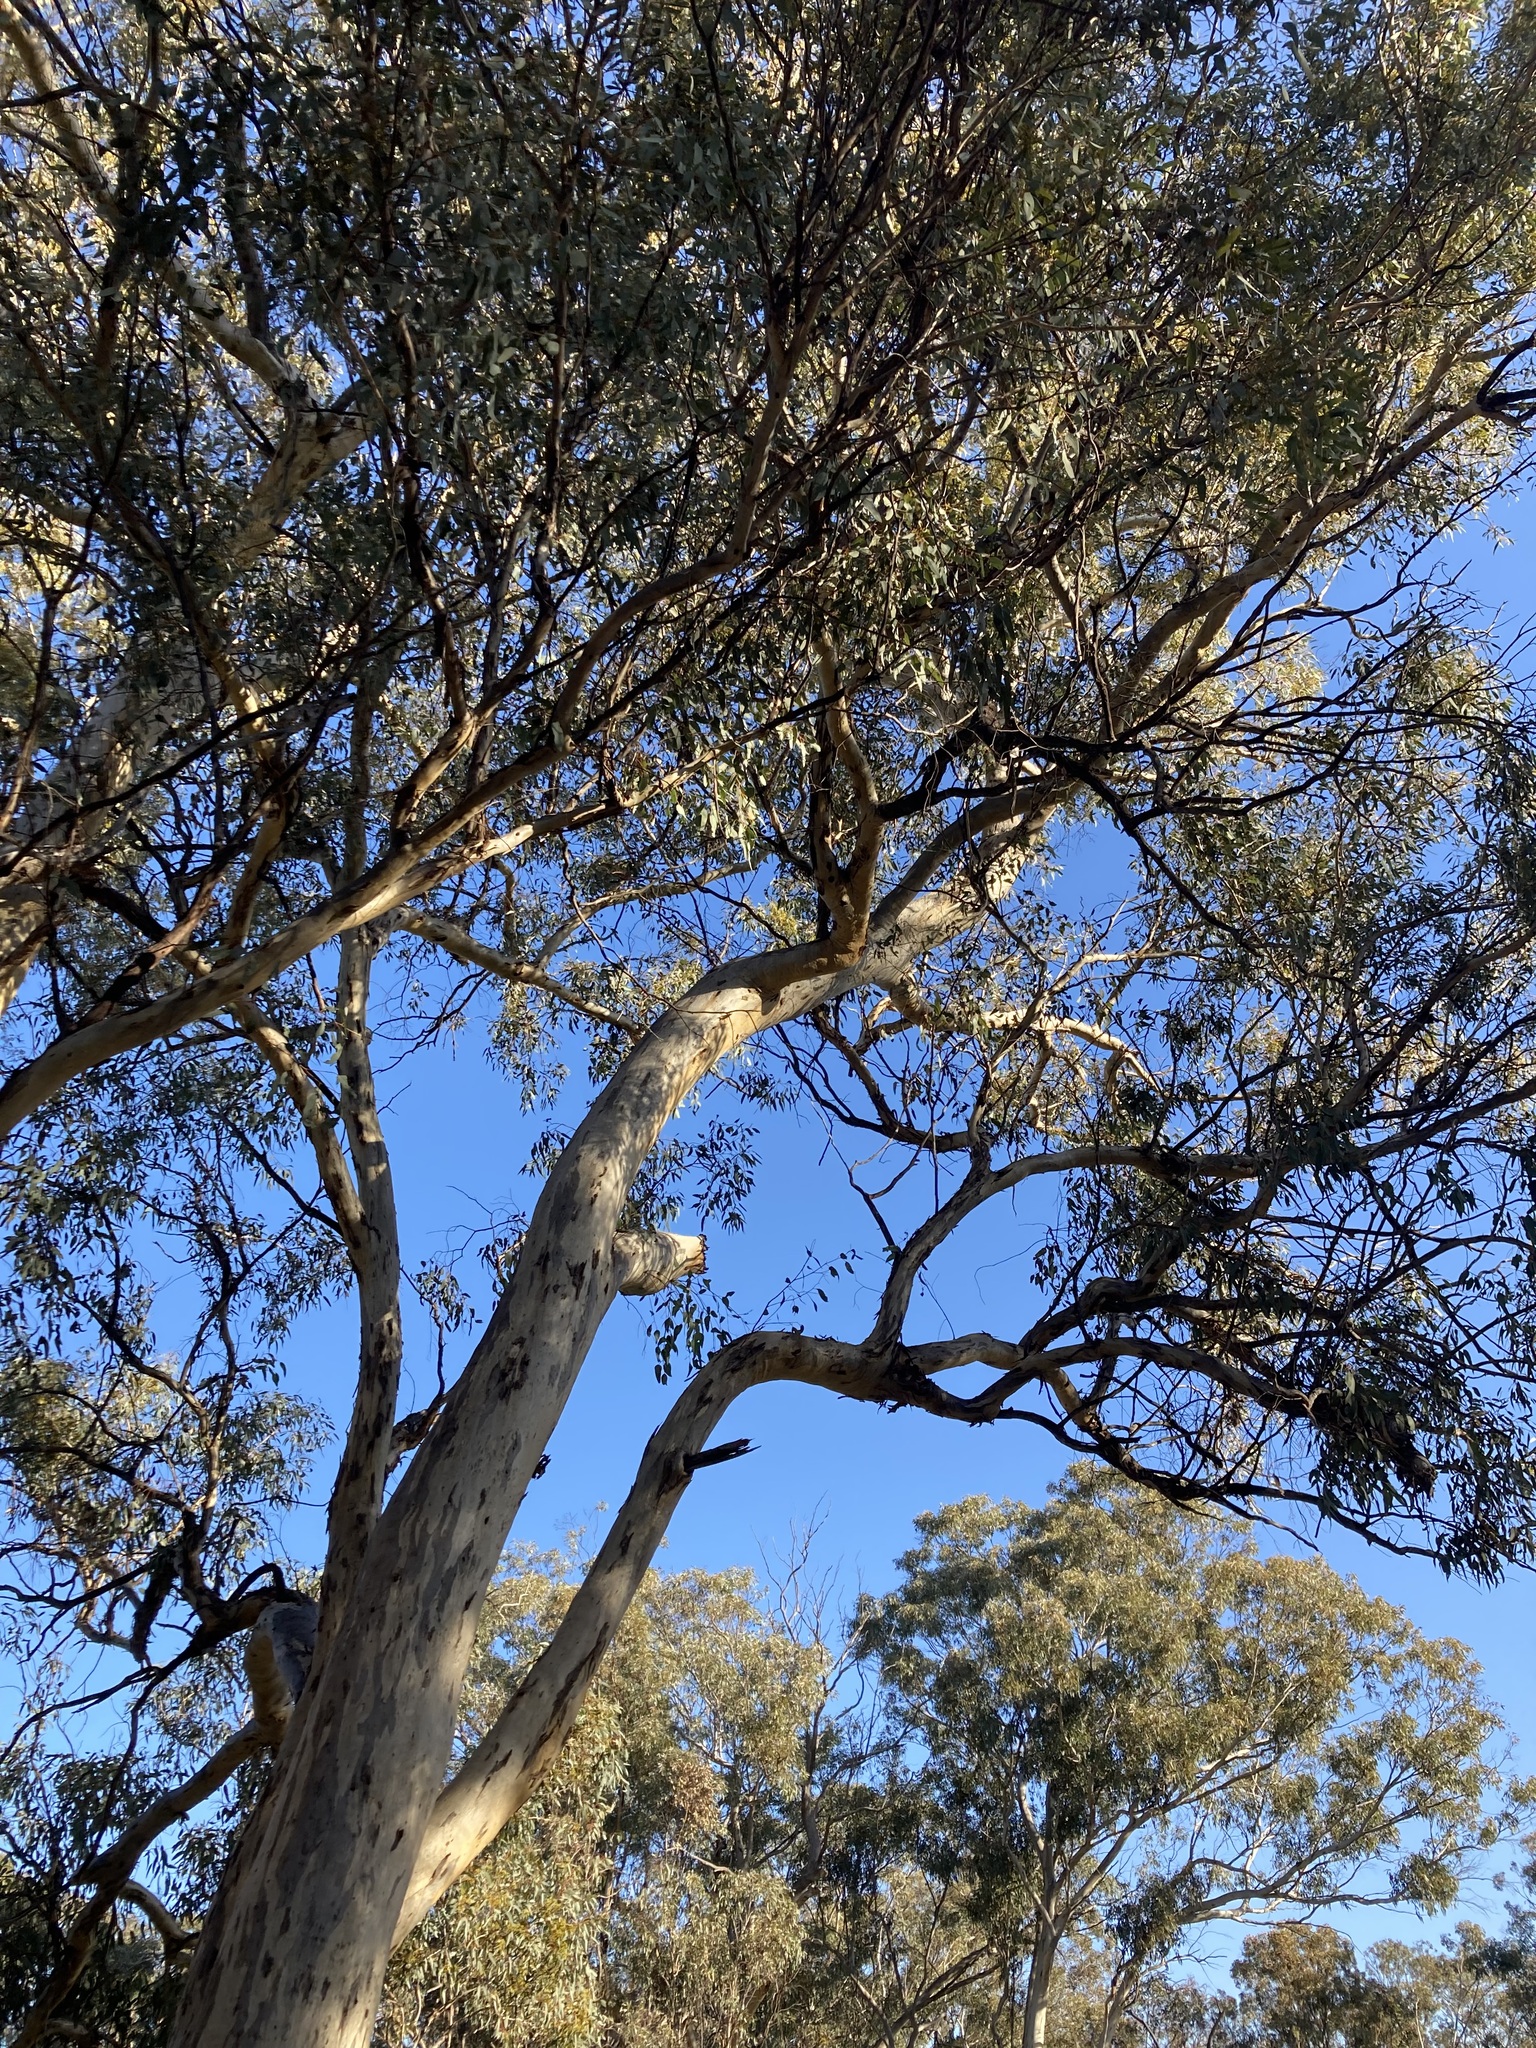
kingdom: Plantae
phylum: Tracheophyta
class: Magnoliopsida
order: Myrtales
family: Myrtaceae
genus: Eucalyptus
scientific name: Eucalyptus wandoo
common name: White gum
